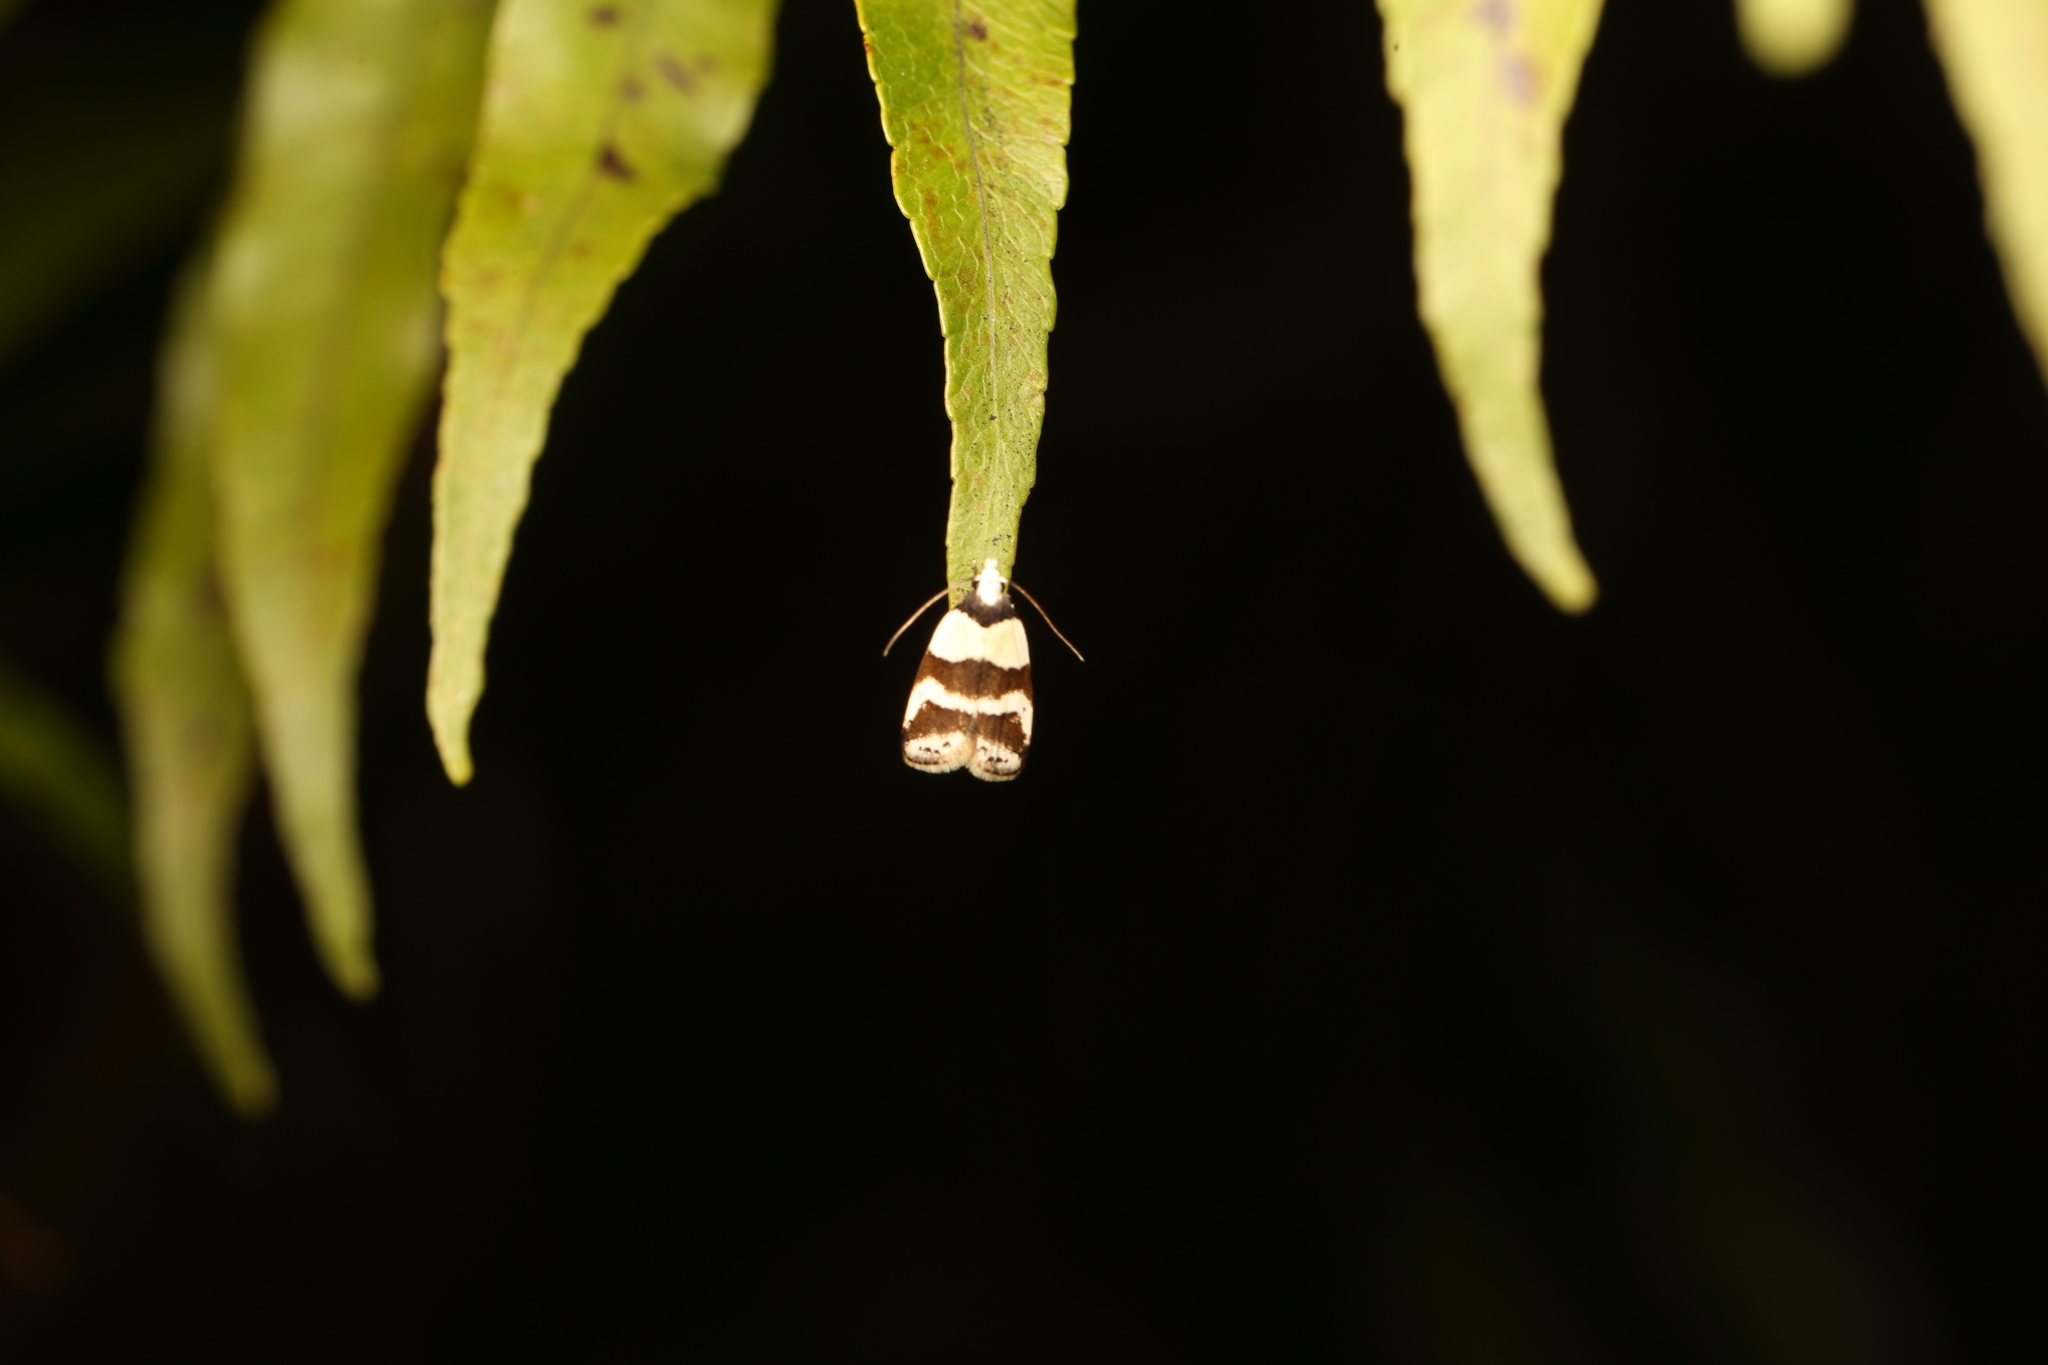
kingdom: Animalia
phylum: Arthropoda
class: Insecta
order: Lepidoptera
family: Oecophoridae
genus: Eulechria
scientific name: Eulechria triferella
